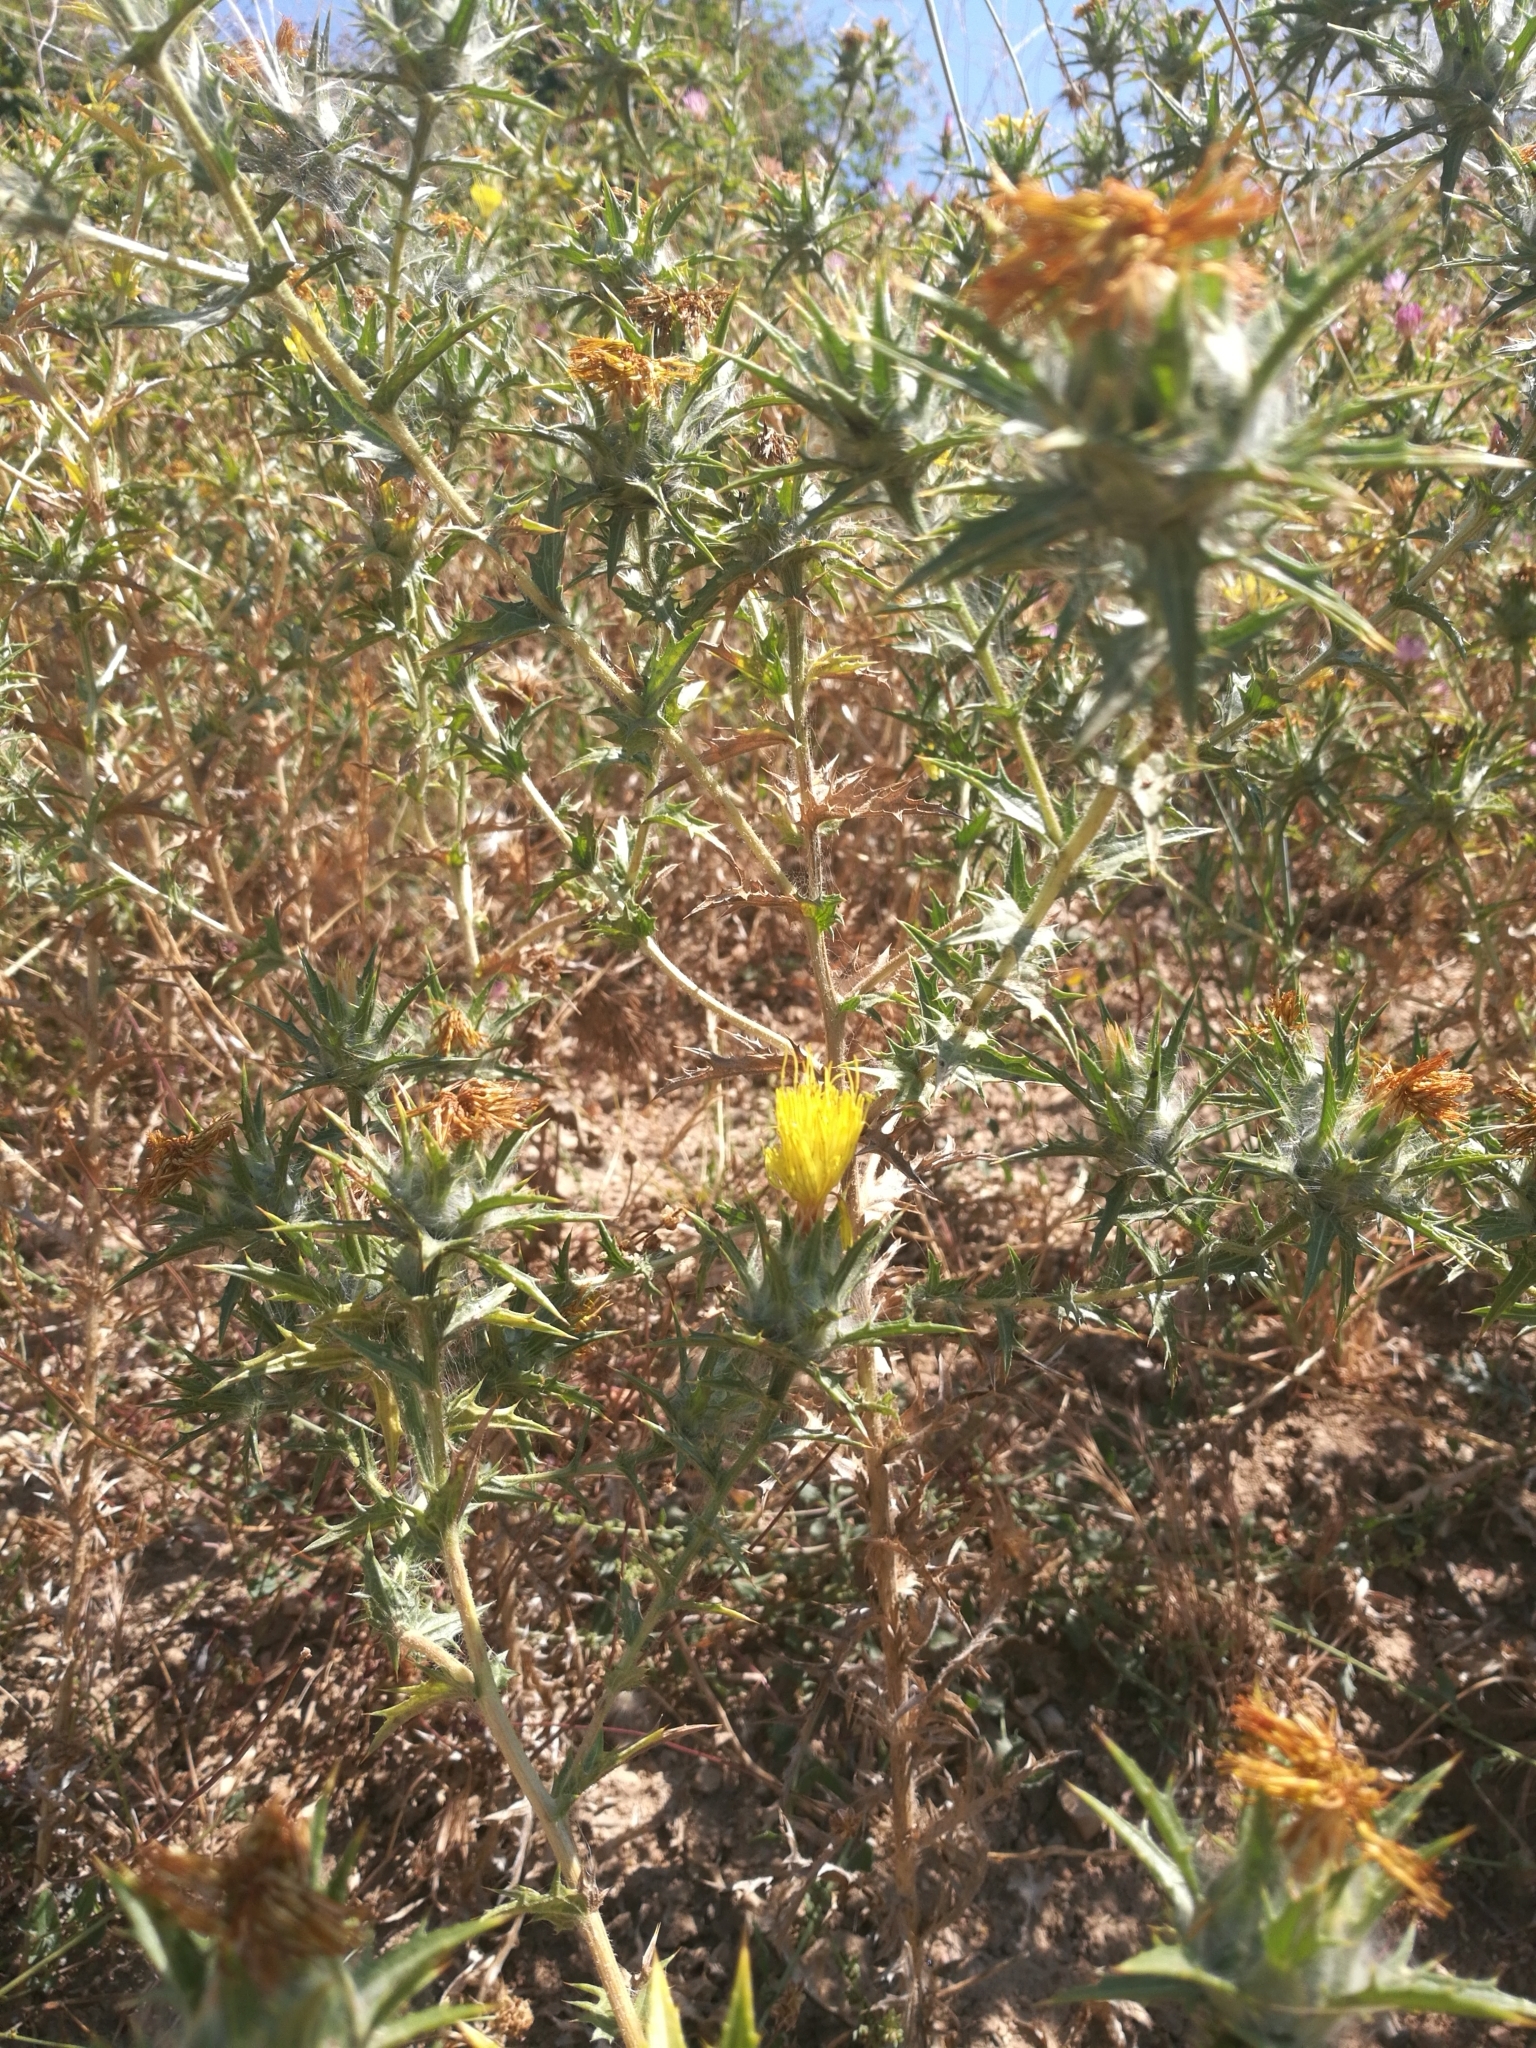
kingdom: Plantae
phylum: Tracheophyta
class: Magnoliopsida
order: Asterales
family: Asteraceae
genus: Carthamus
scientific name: Carthamus lanatus
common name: Downy safflower
